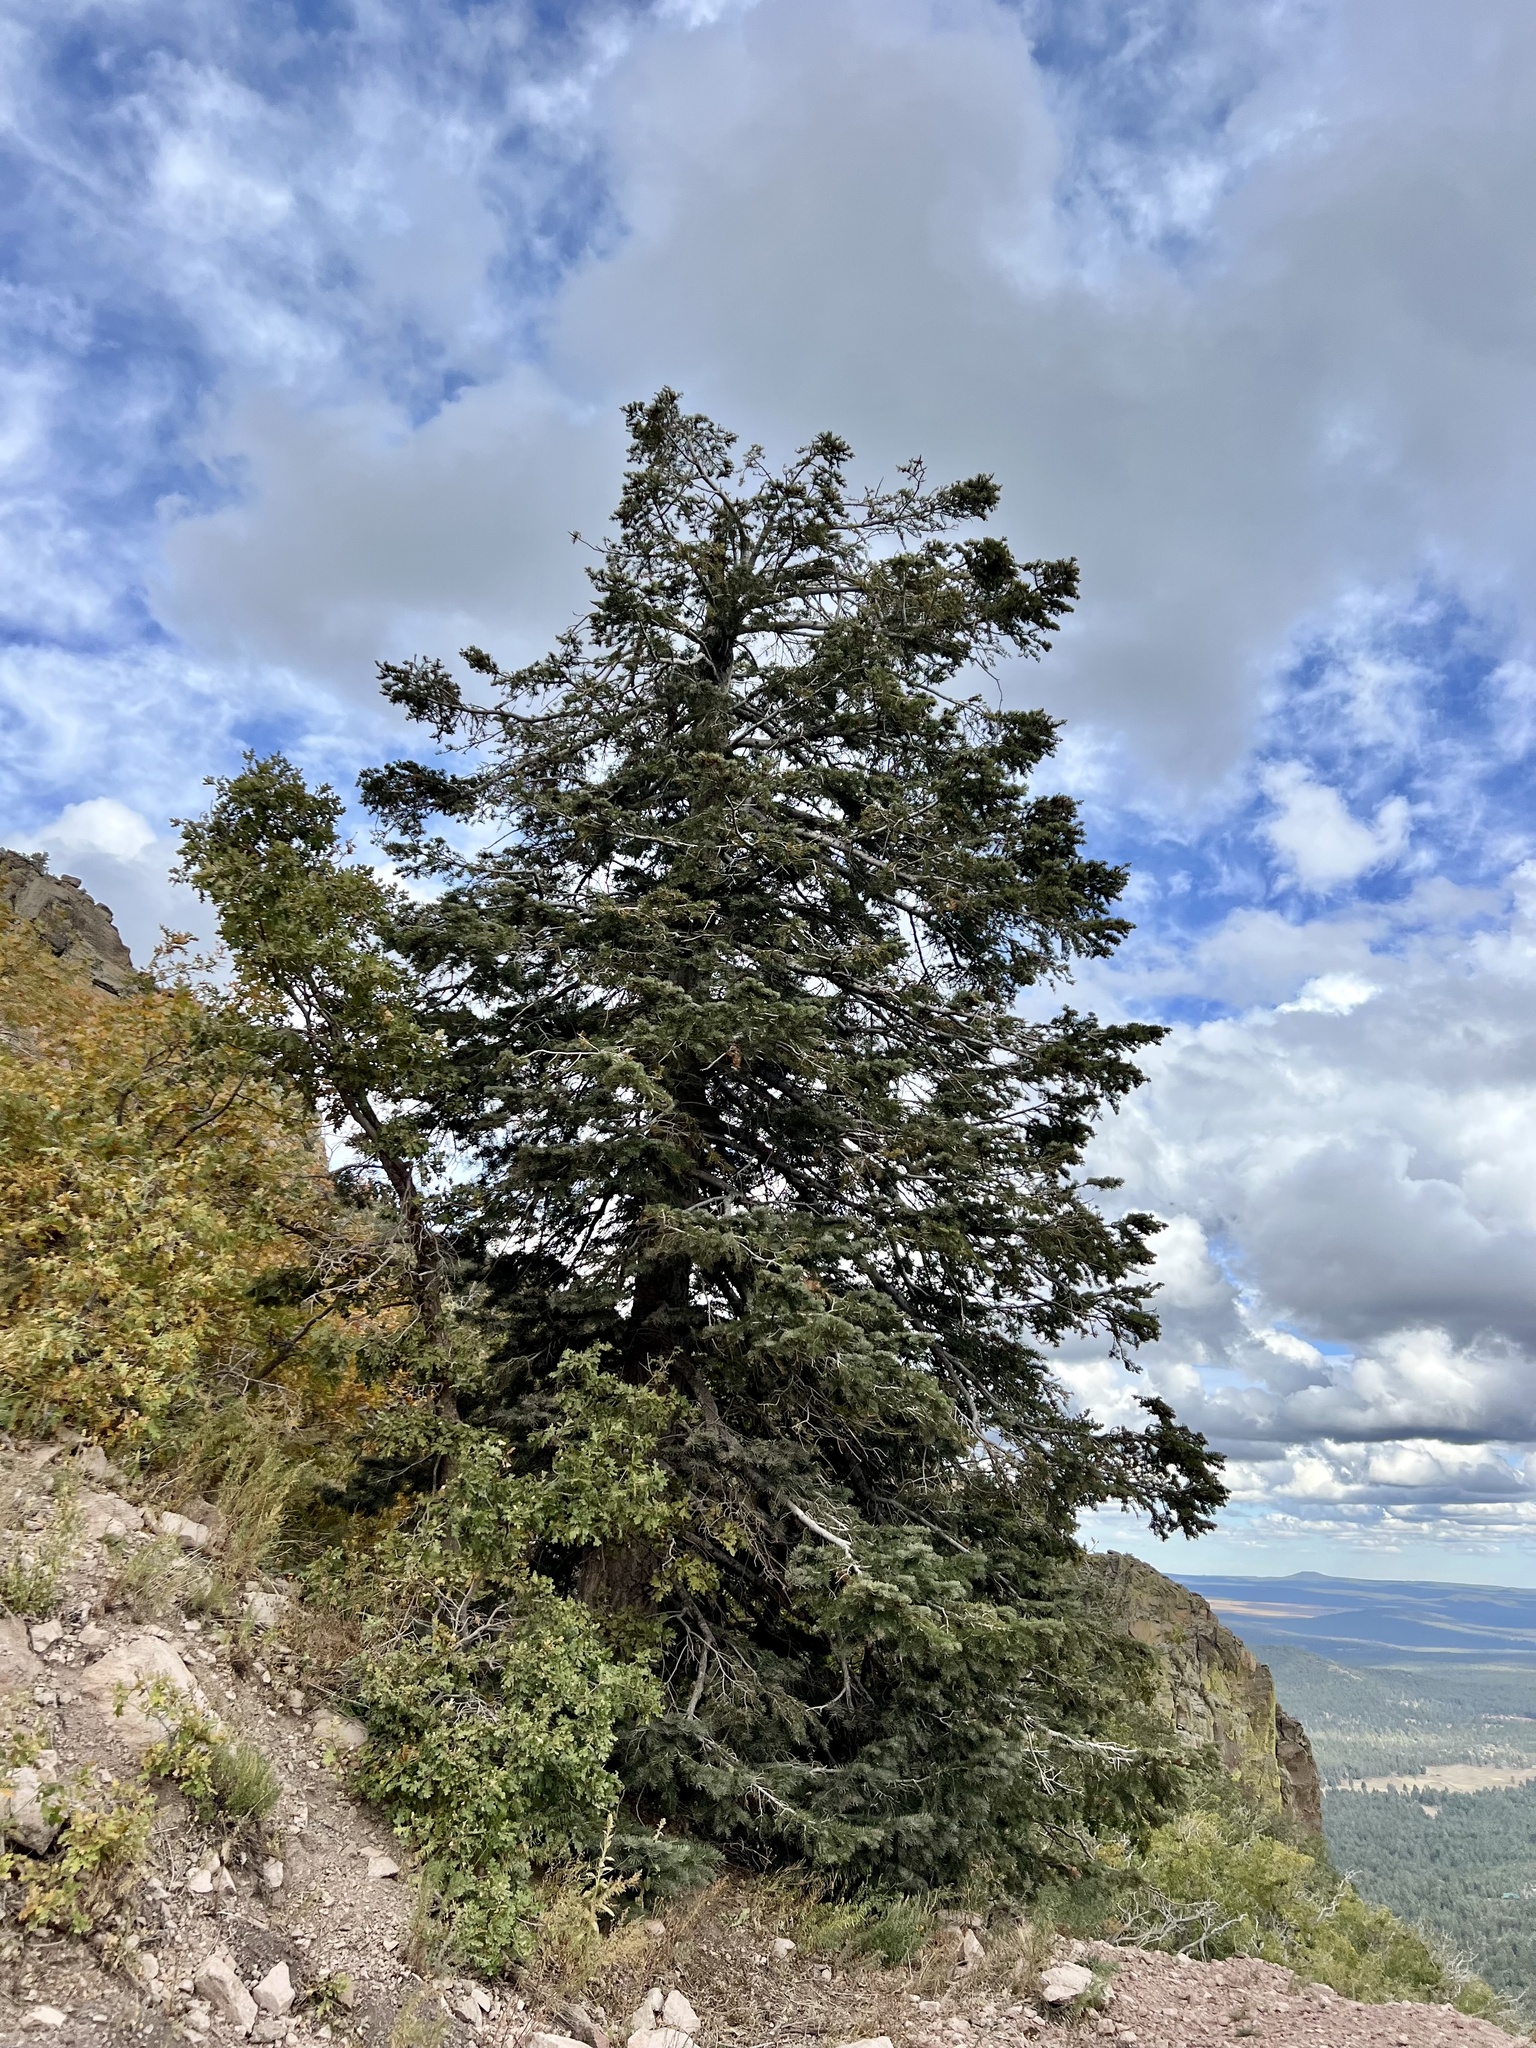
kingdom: Plantae
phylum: Tracheophyta
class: Pinopsida
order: Pinales
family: Pinaceae
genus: Abies
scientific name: Abies concolor
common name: Colorado fir
